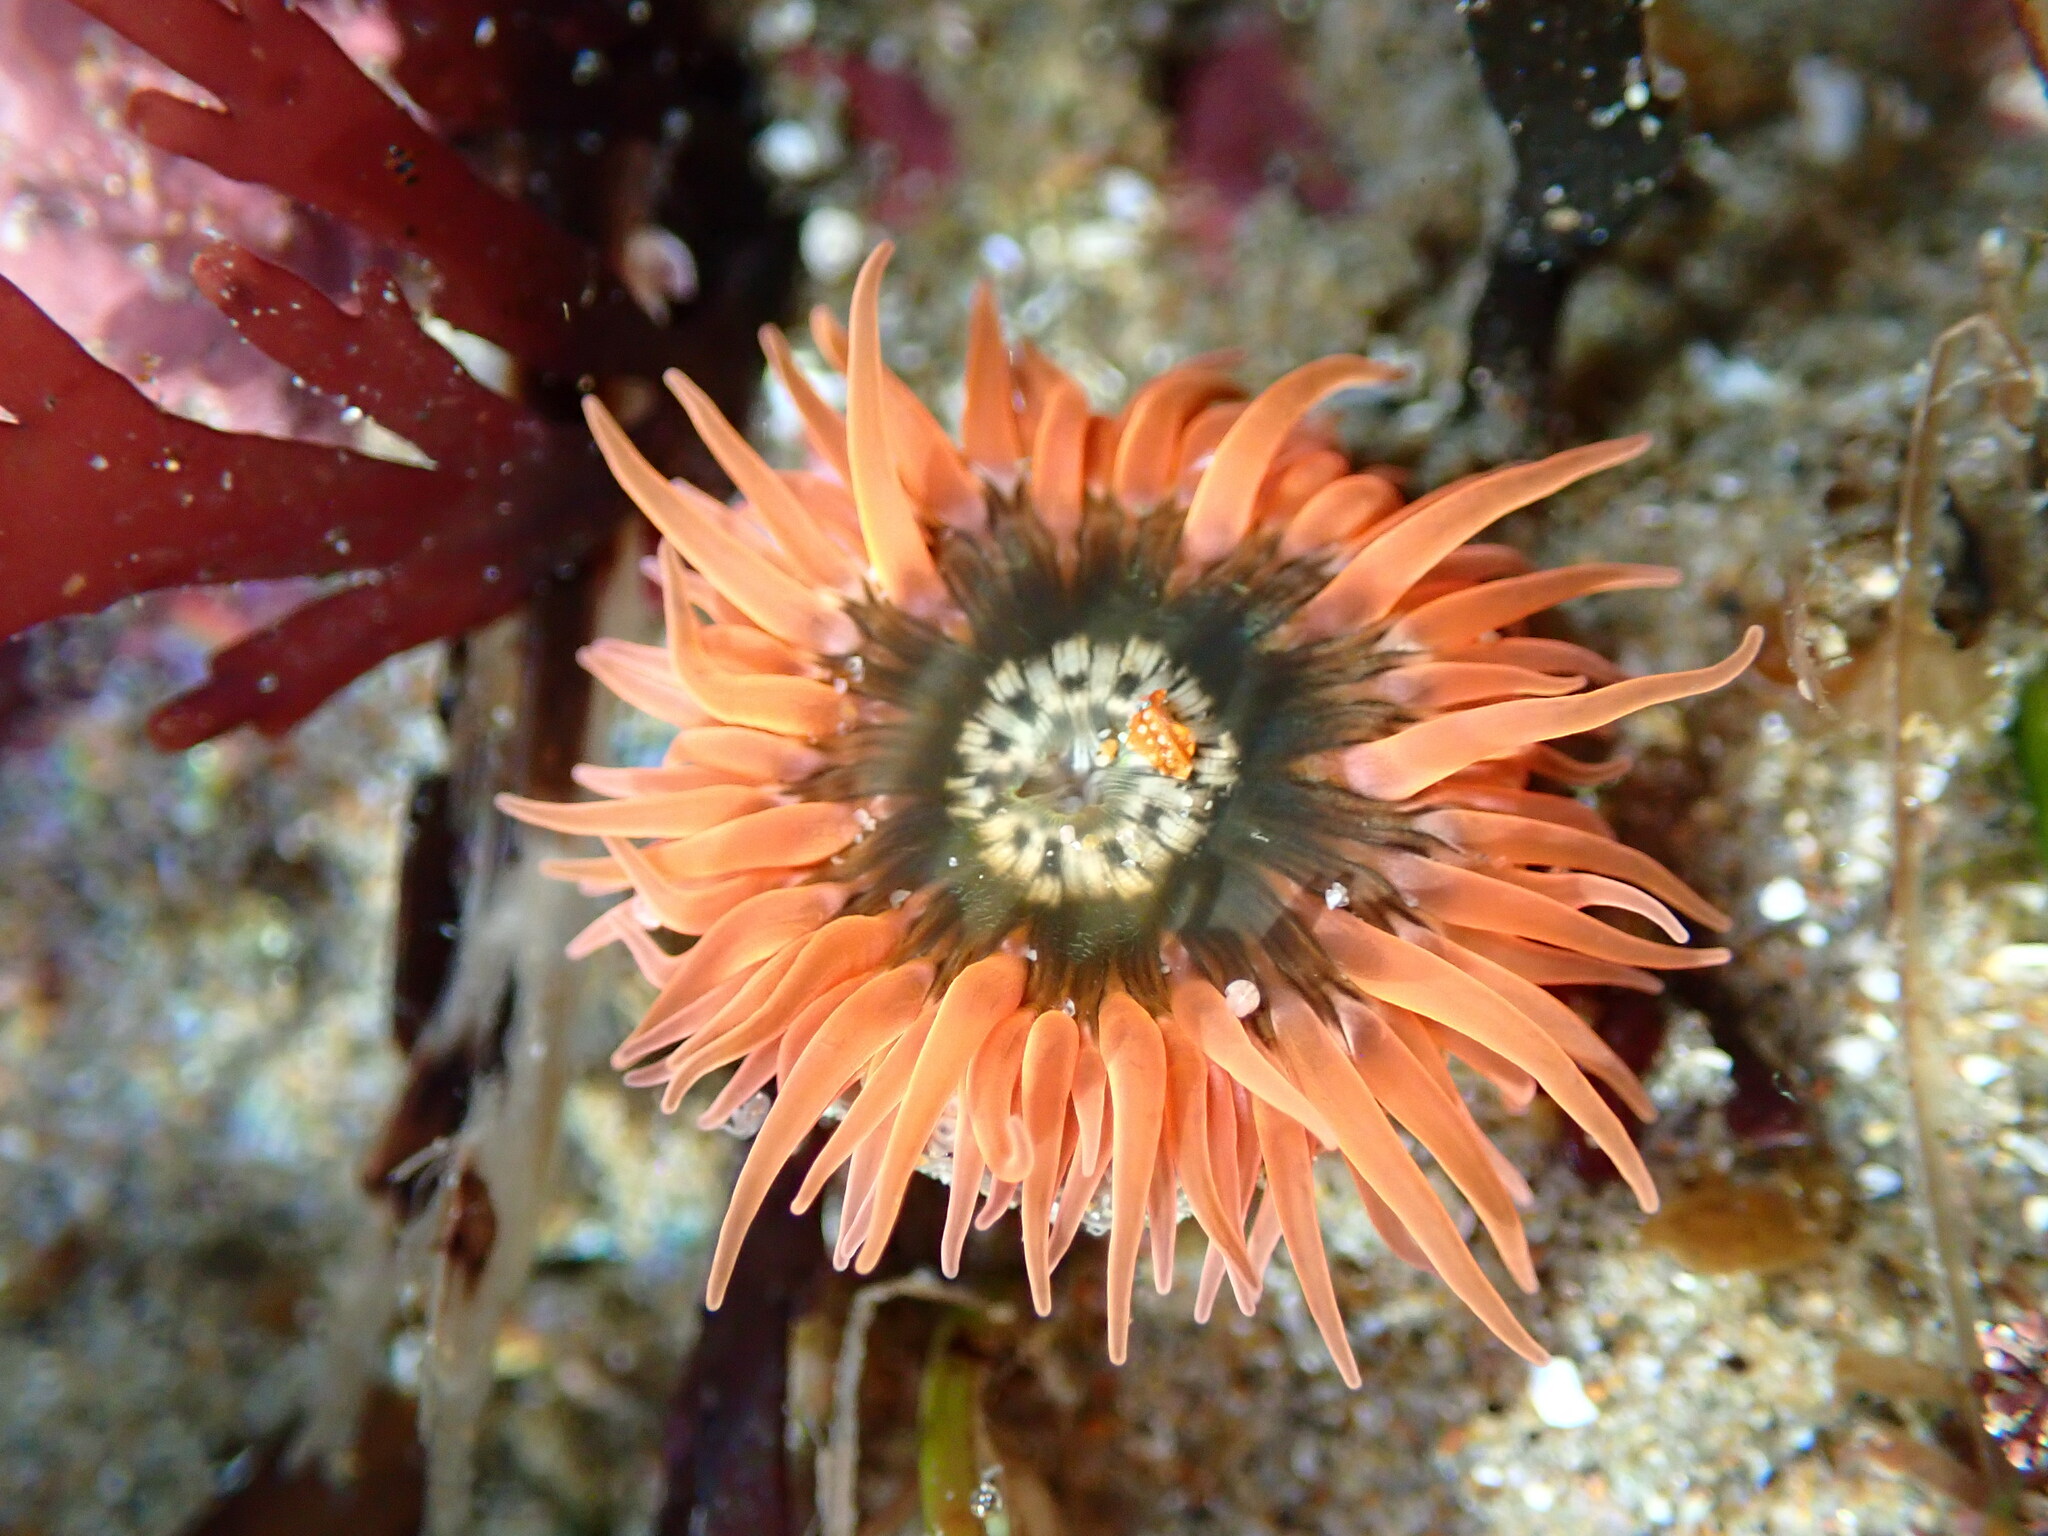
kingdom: Animalia
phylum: Cnidaria
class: Anthozoa
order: Actiniaria
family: Actiniidae
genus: Anthopleura
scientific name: Anthopleura artemisia
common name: Buried sea anemone
